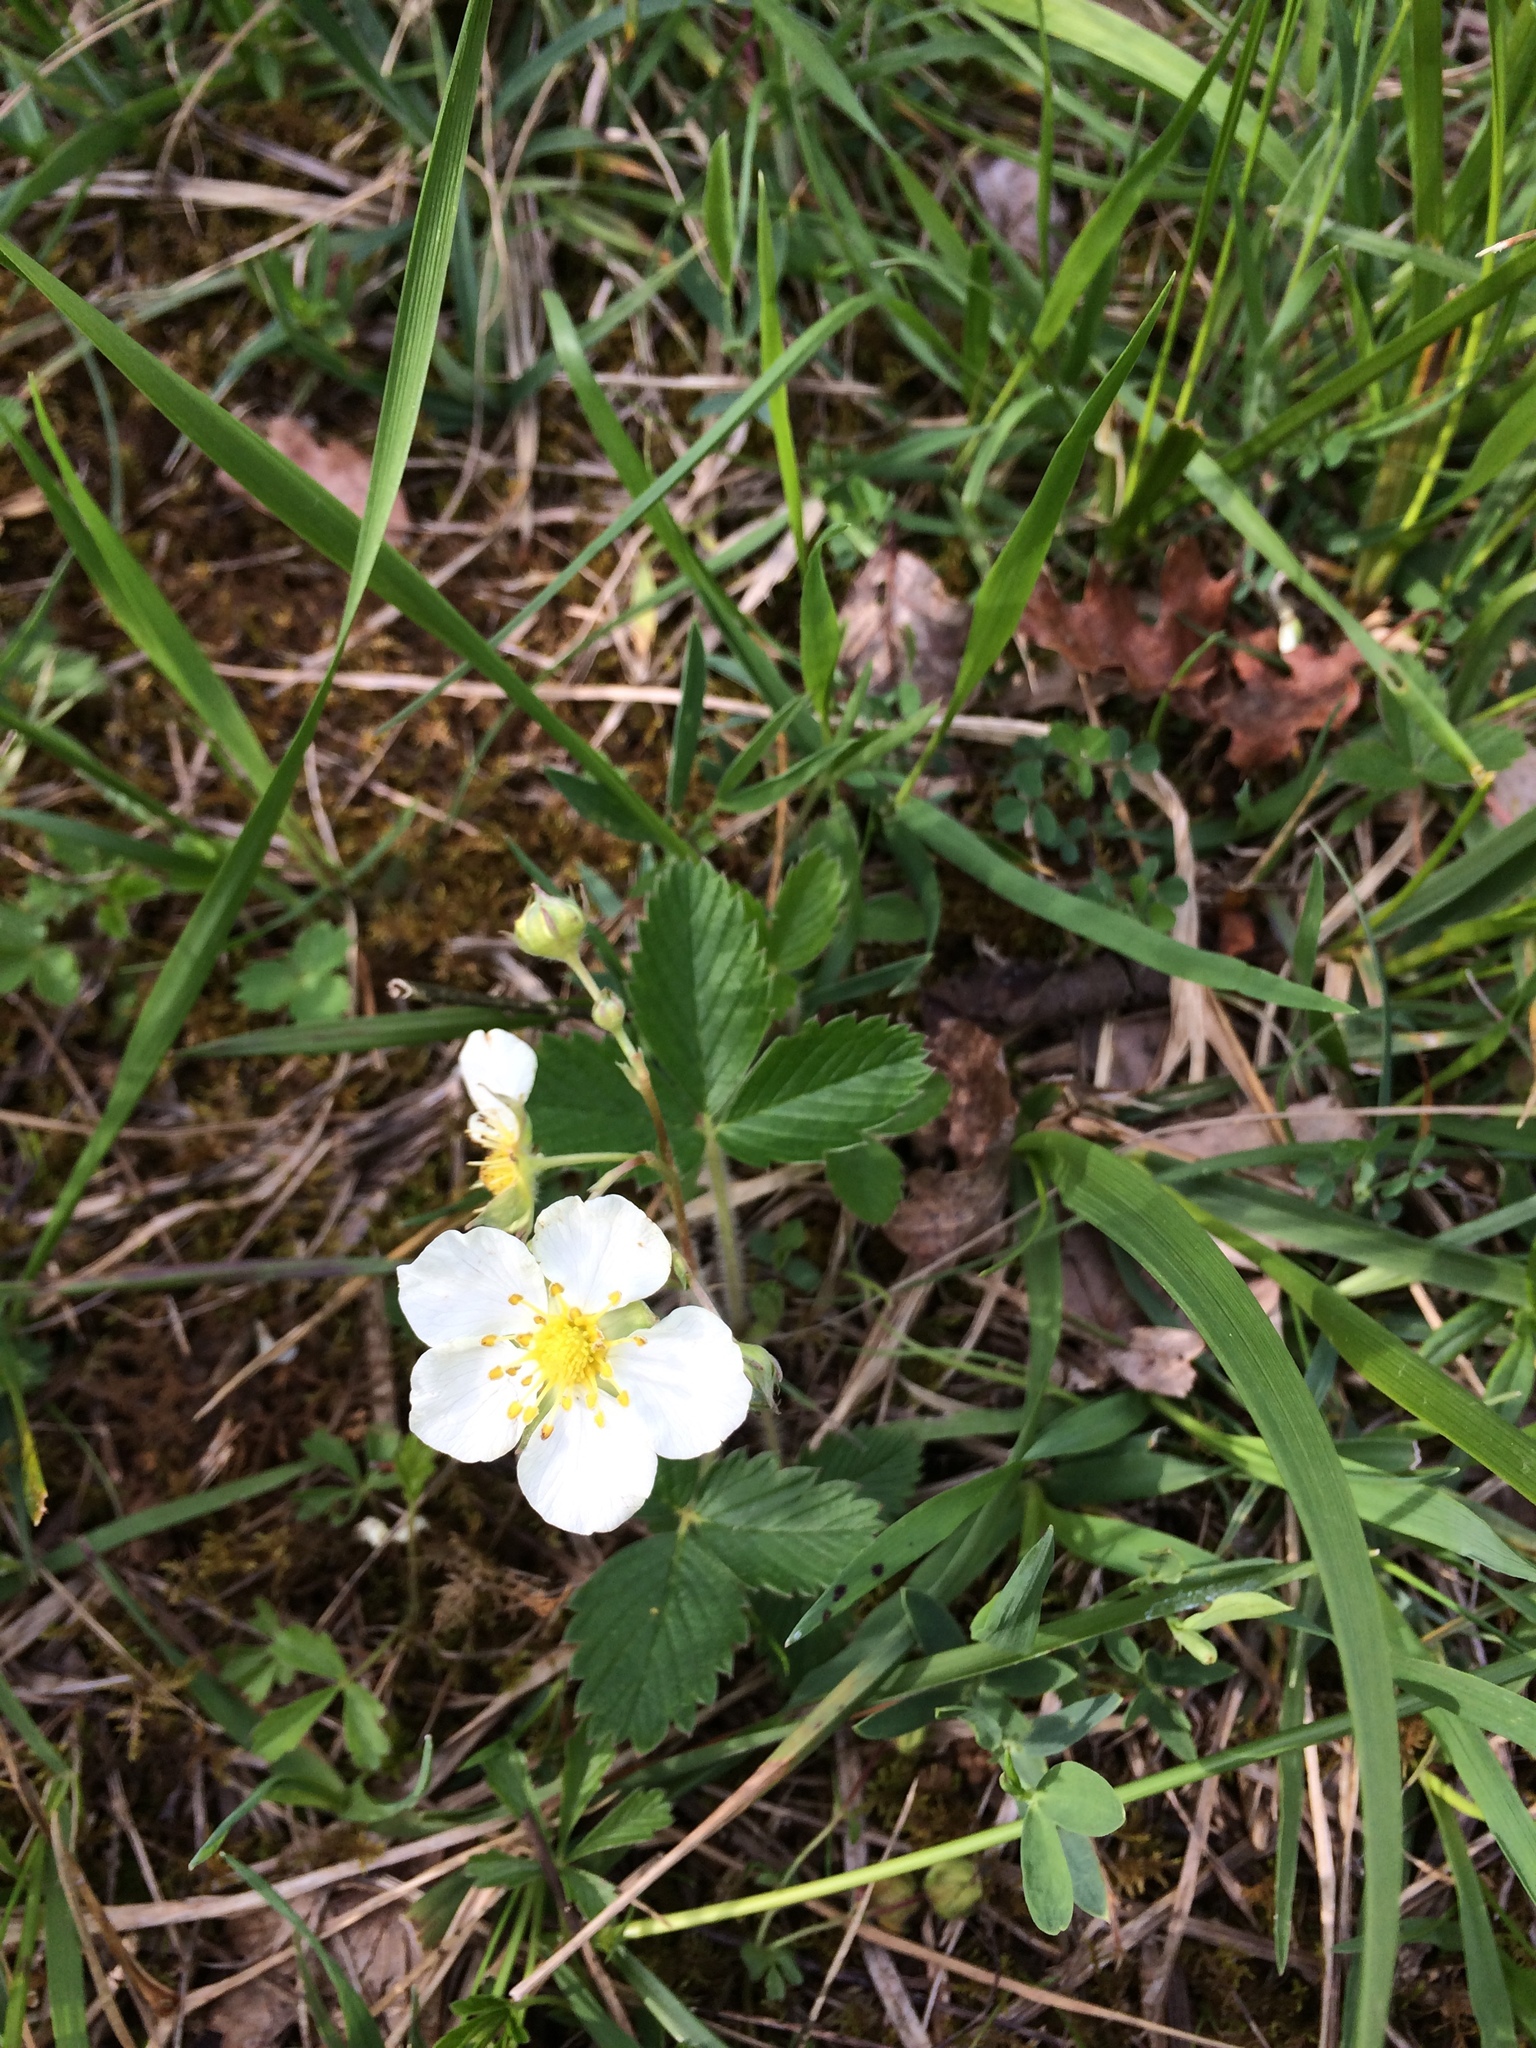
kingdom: Plantae
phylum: Tracheophyta
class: Magnoliopsida
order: Rosales
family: Rosaceae
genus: Fragaria
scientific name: Fragaria vesca
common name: Wild strawberry
